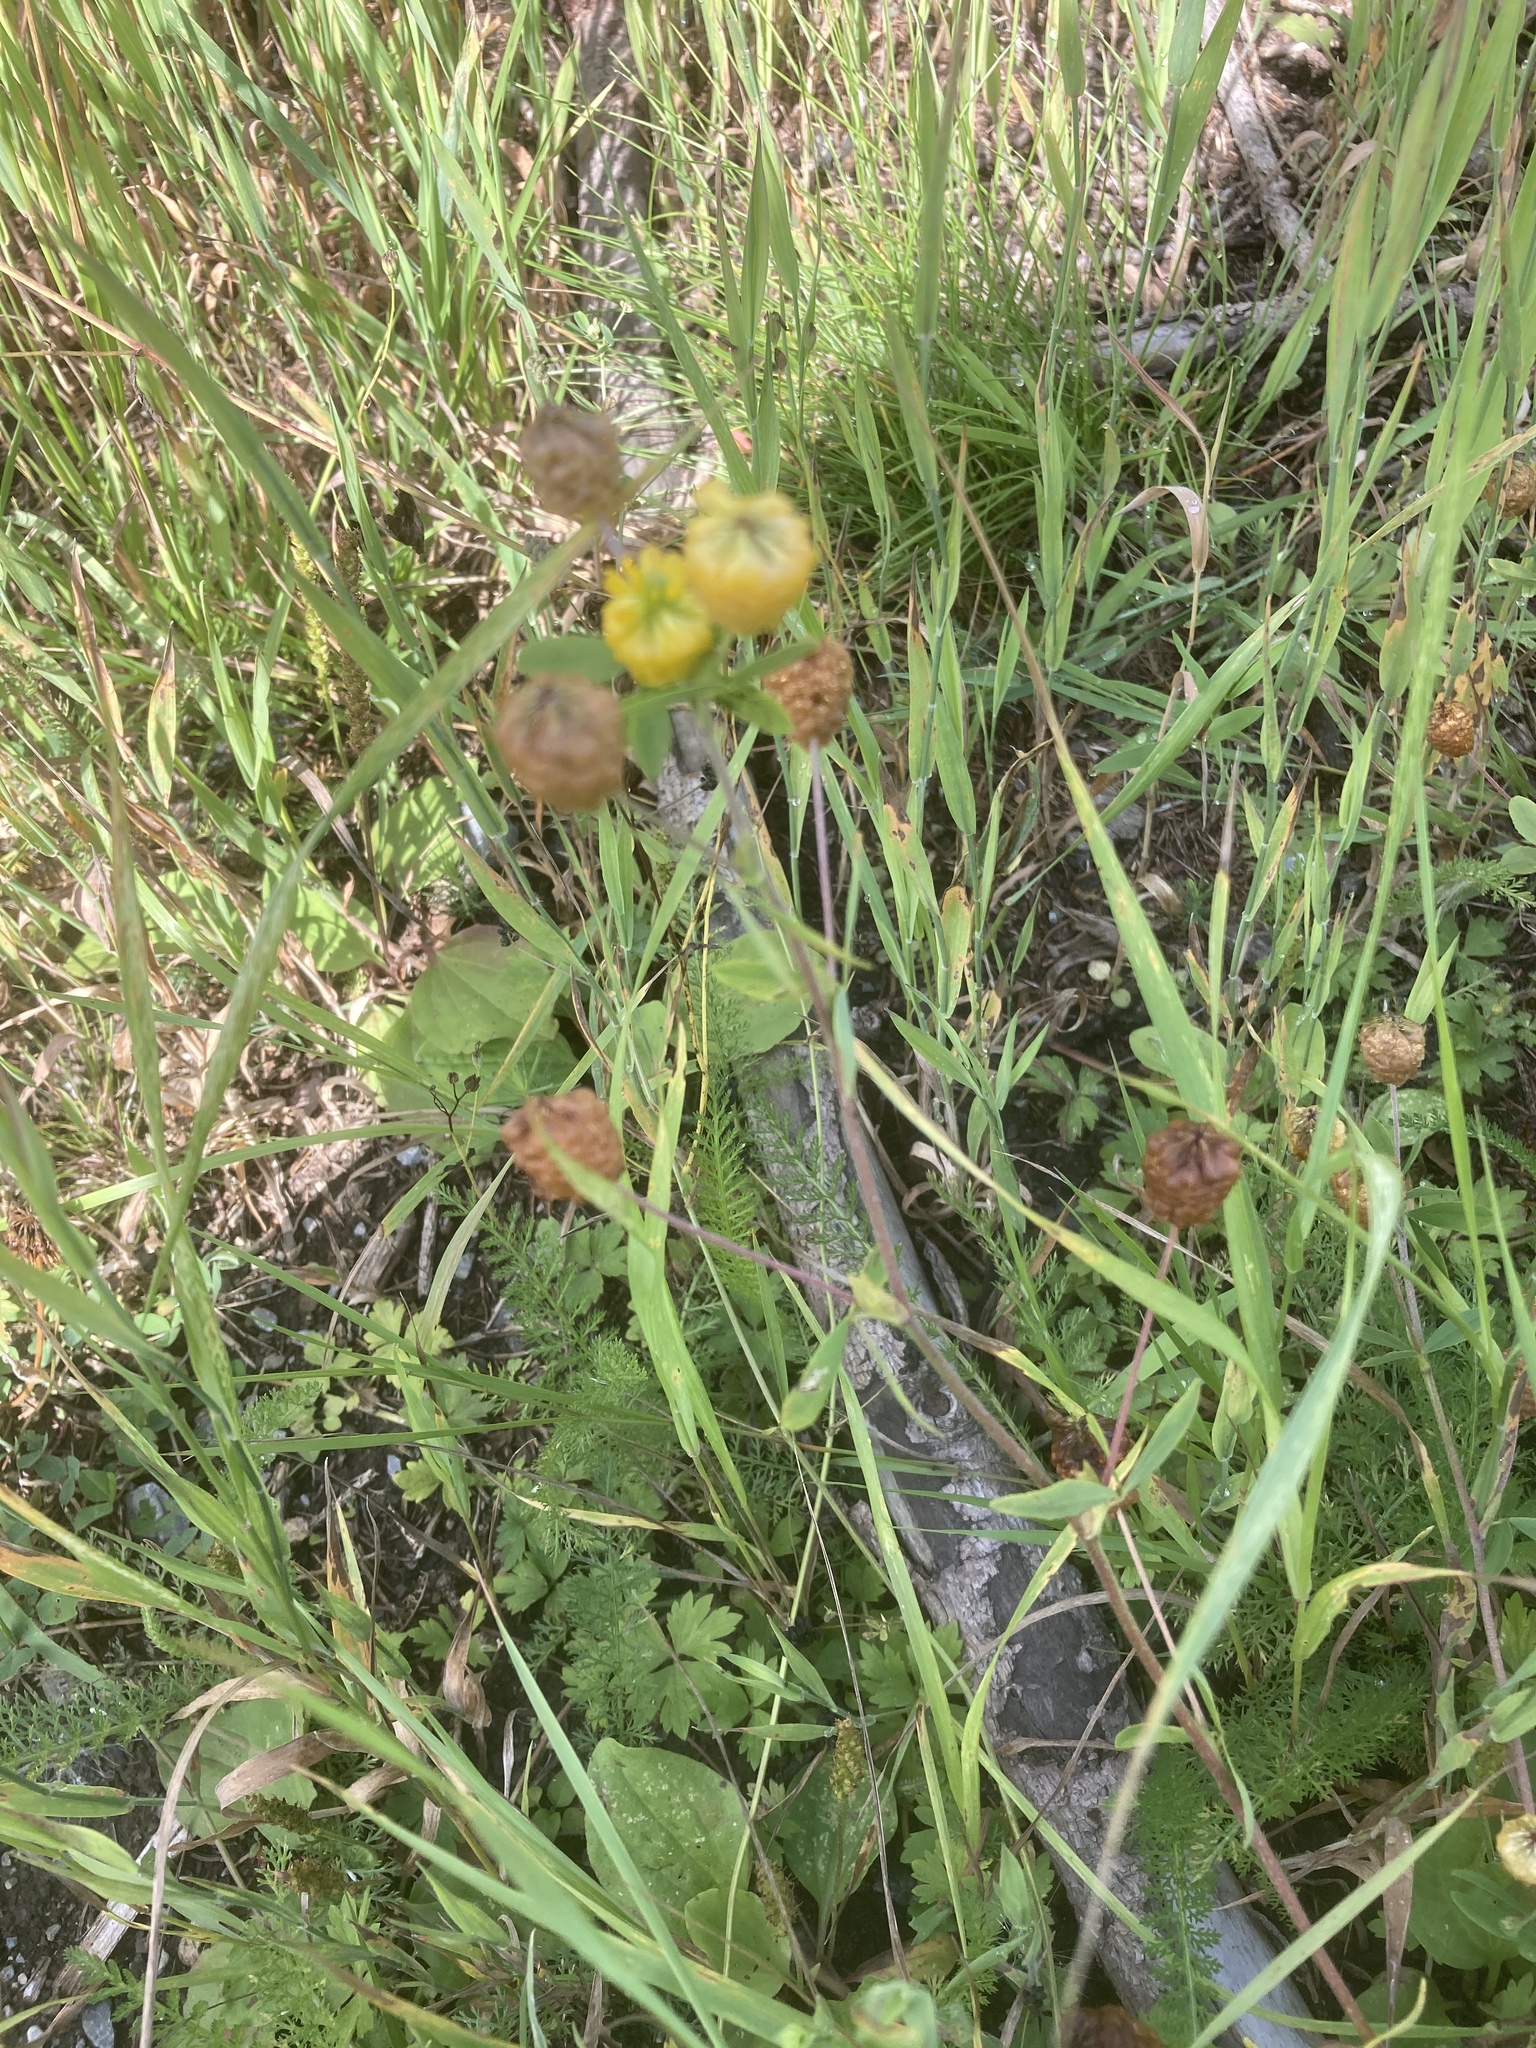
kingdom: Plantae
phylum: Tracheophyta
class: Magnoliopsida
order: Fabales
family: Fabaceae
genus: Trifolium
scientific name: Trifolium aureum
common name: Golden clover
